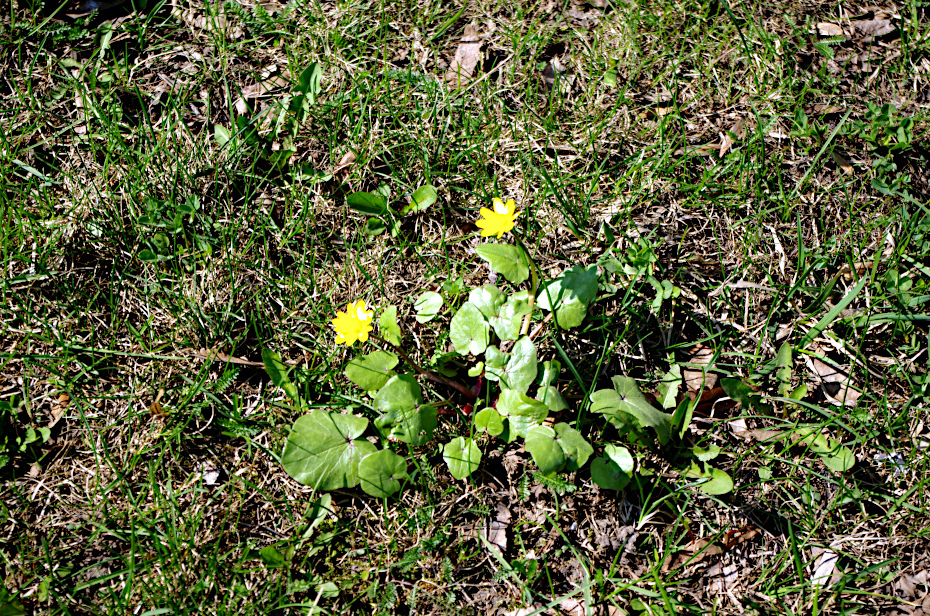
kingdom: Plantae
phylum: Tracheophyta
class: Magnoliopsida
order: Ranunculales
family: Ranunculaceae
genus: Ficaria
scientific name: Ficaria verna
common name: Lesser celandine
